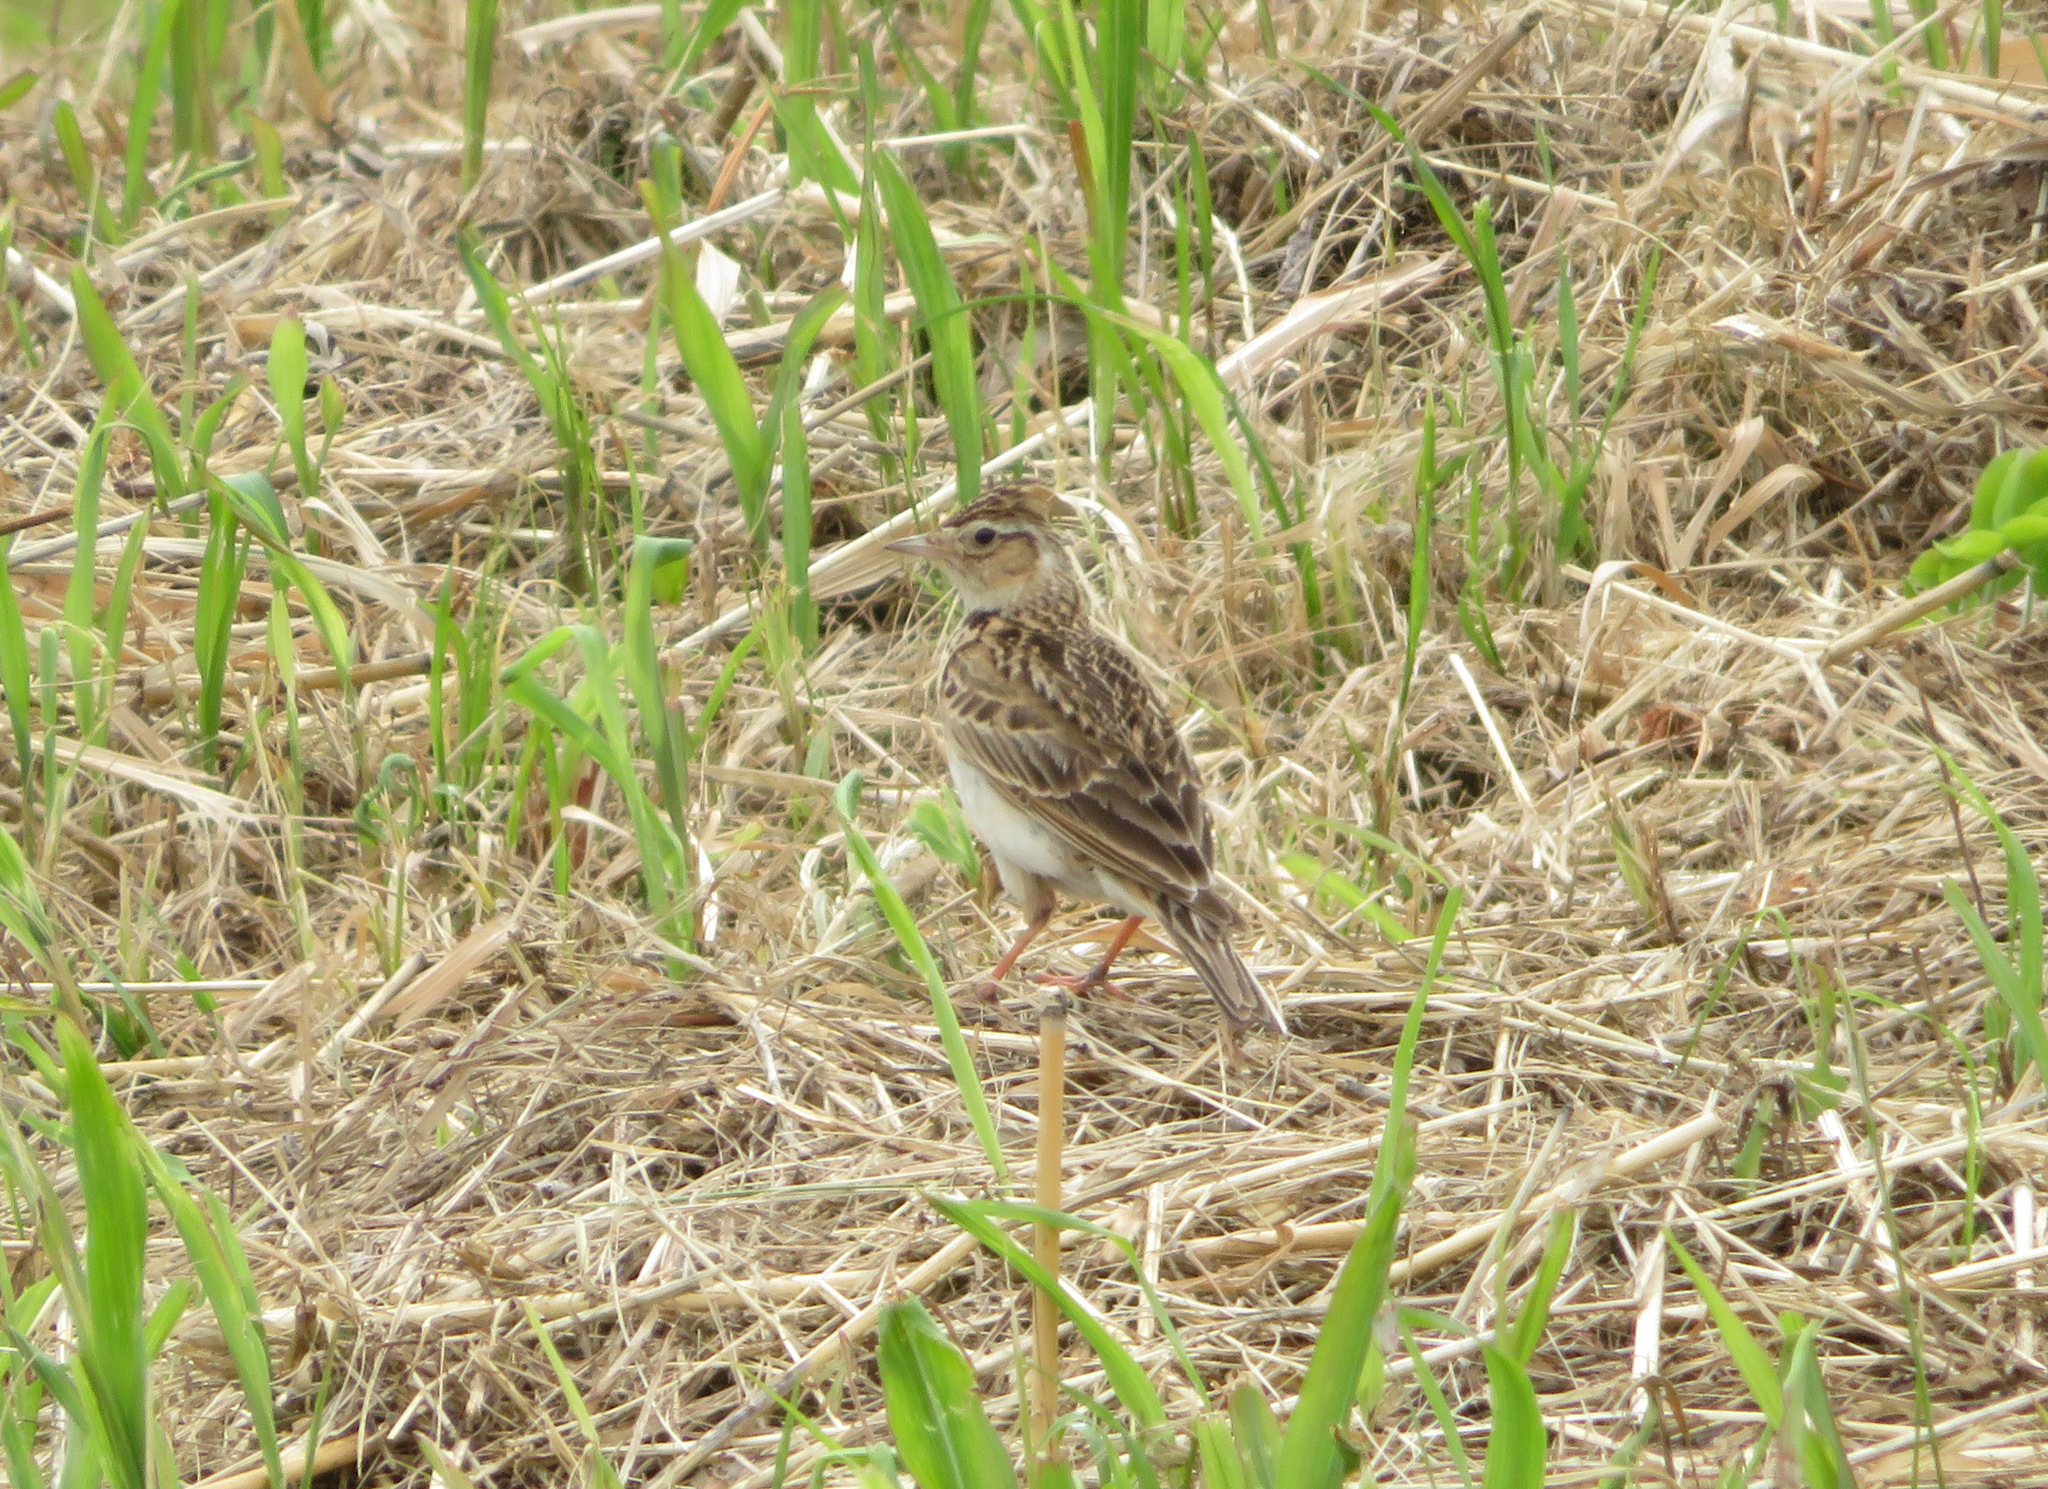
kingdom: Animalia
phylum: Chordata
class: Aves
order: Passeriformes
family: Alaudidae
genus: Alauda
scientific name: Alauda arvensis
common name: Eurasian skylark
